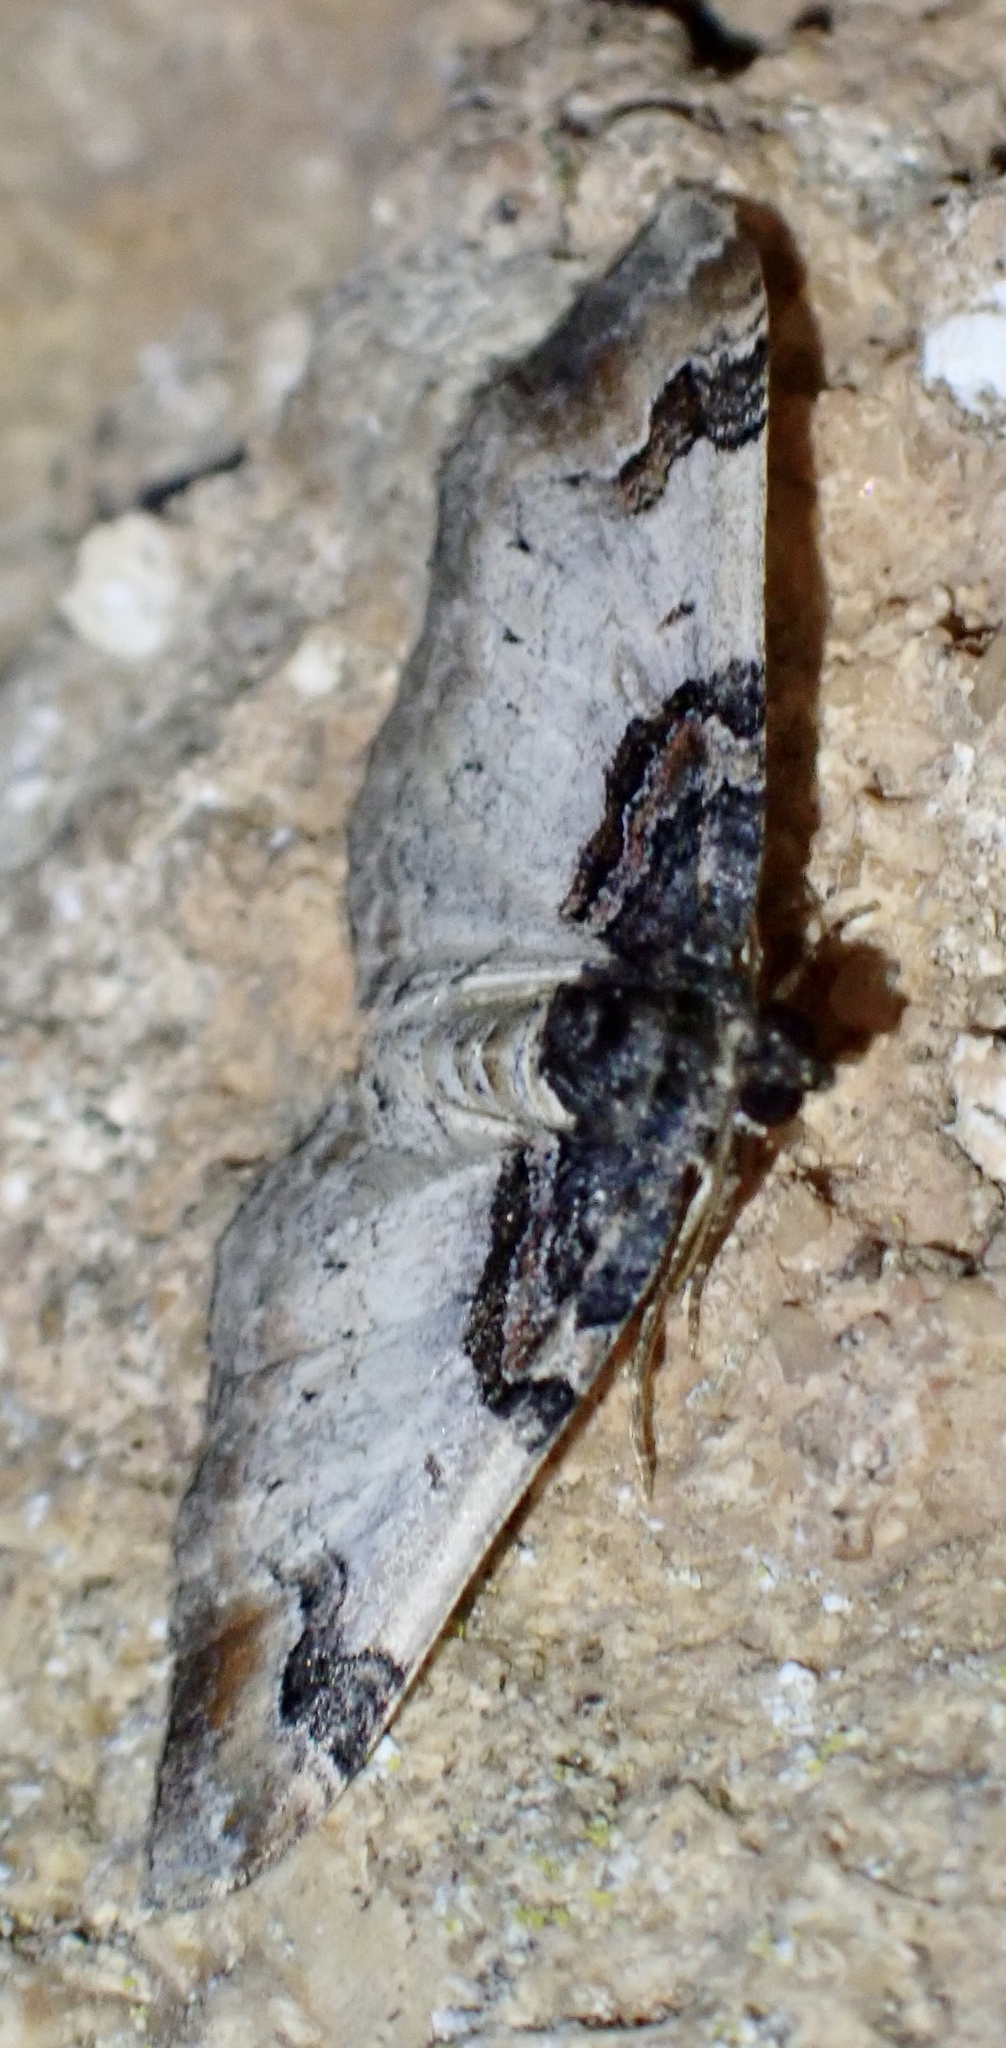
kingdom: Animalia
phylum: Arthropoda
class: Insecta
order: Lepidoptera
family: Geometridae
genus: Catarhoe
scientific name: Catarhoe cuculata
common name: Royal mantle
